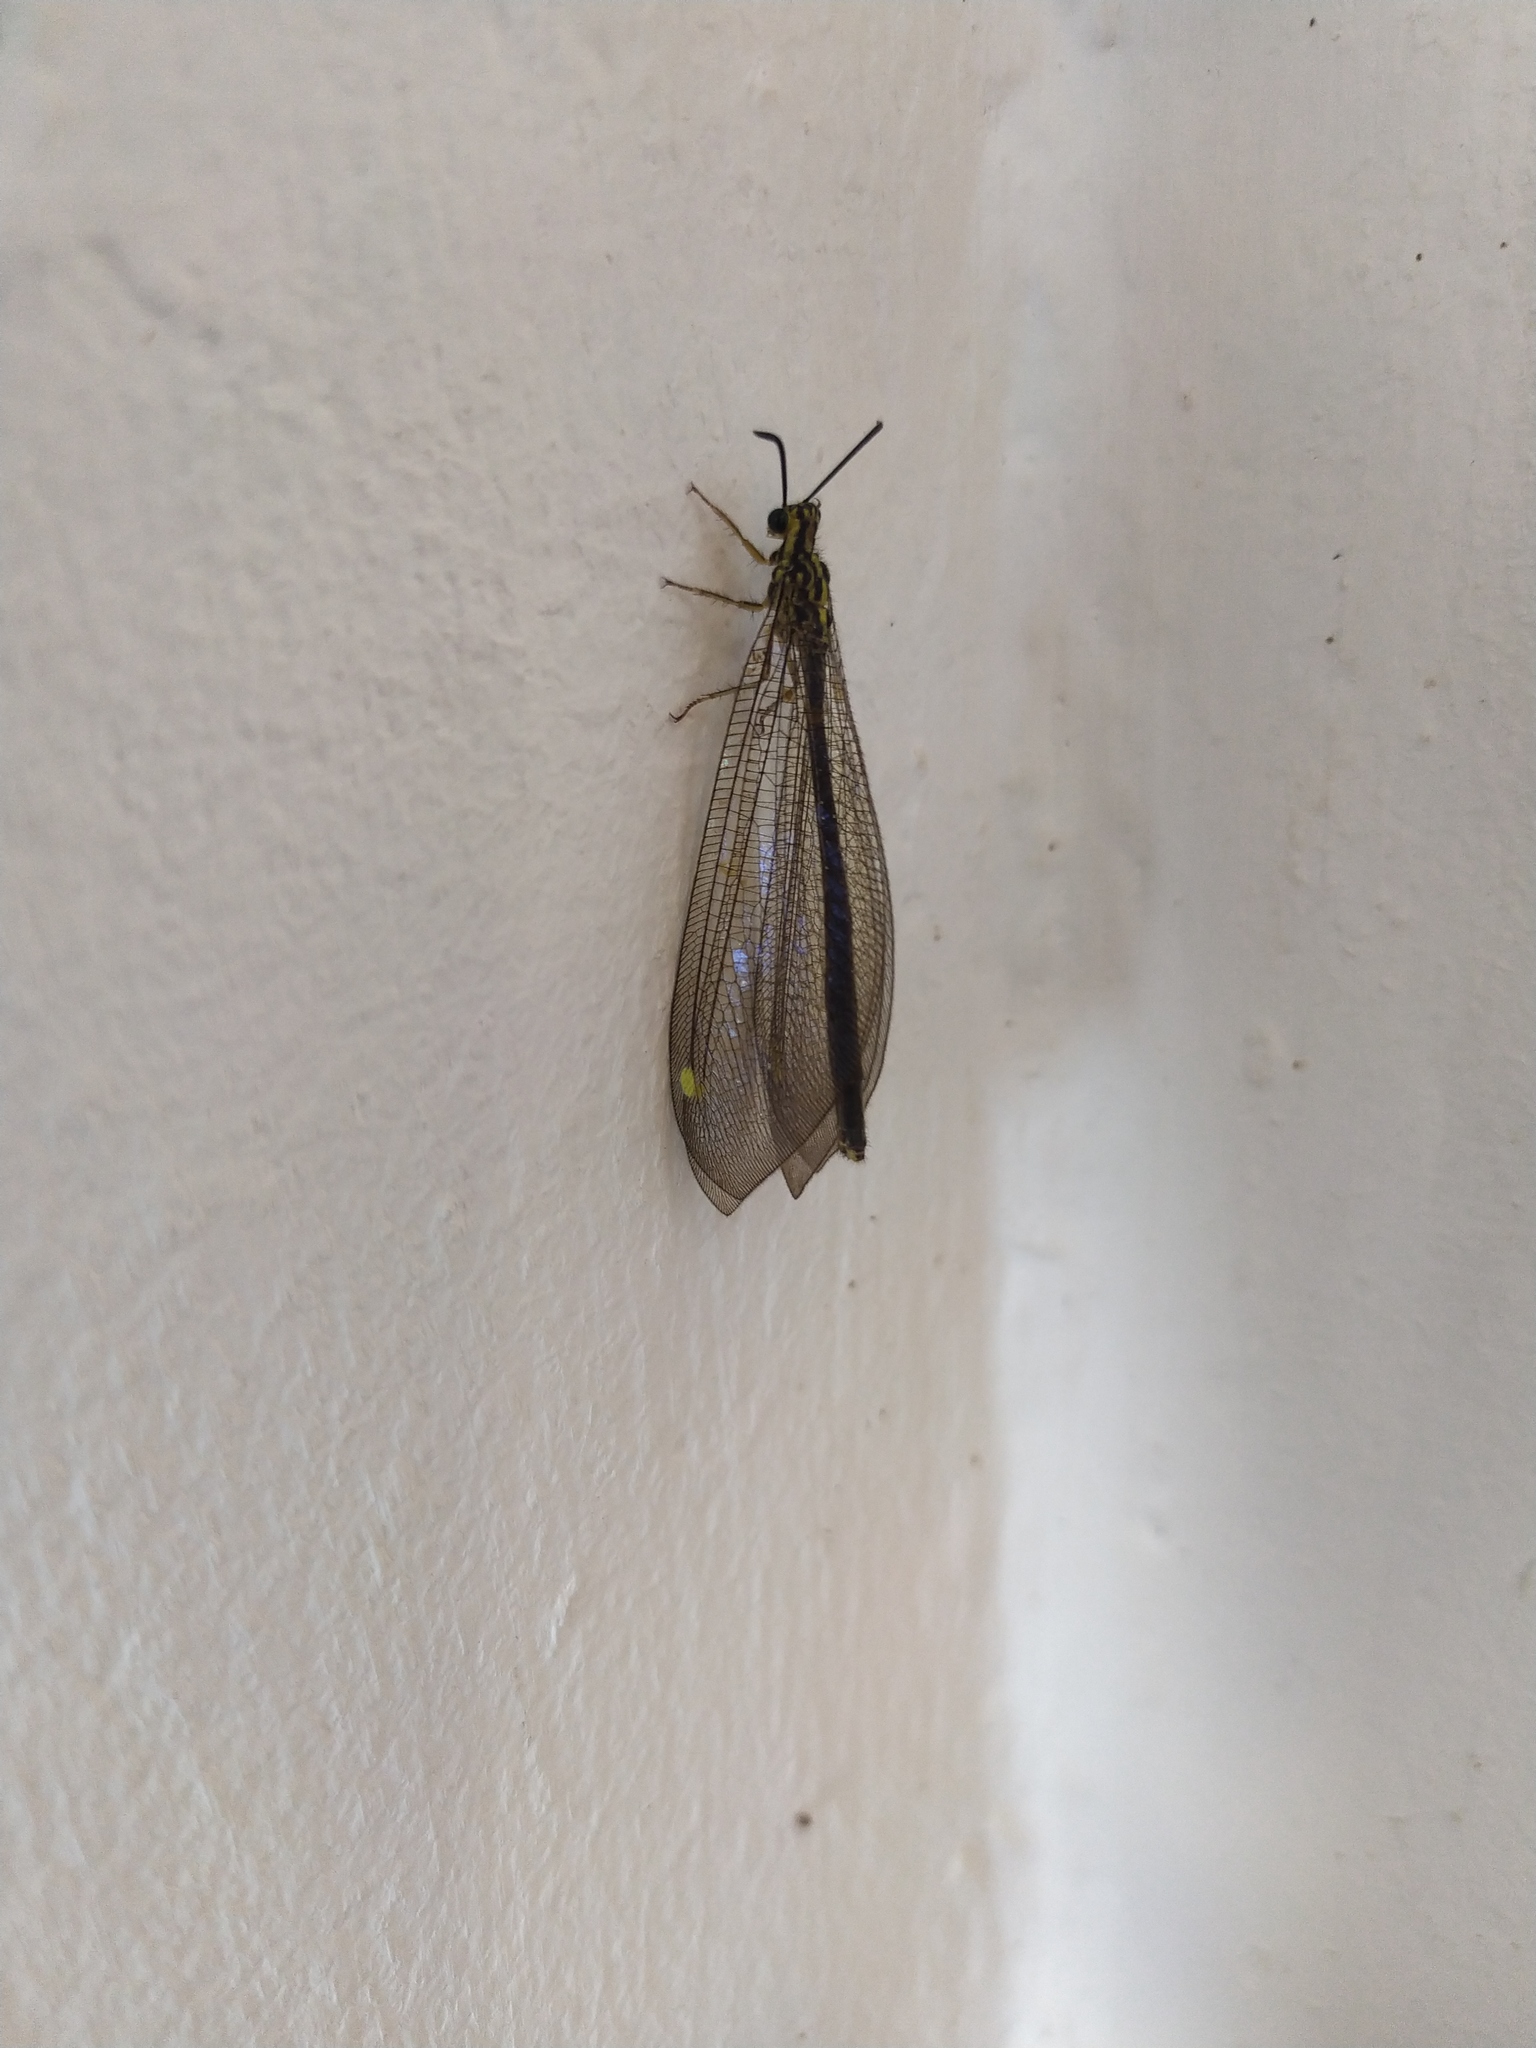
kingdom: Animalia
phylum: Arthropoda
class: Insecta
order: Neuroptera
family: Myrmeleontidae
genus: Hagenomyia
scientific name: Hagenomyia tristis
